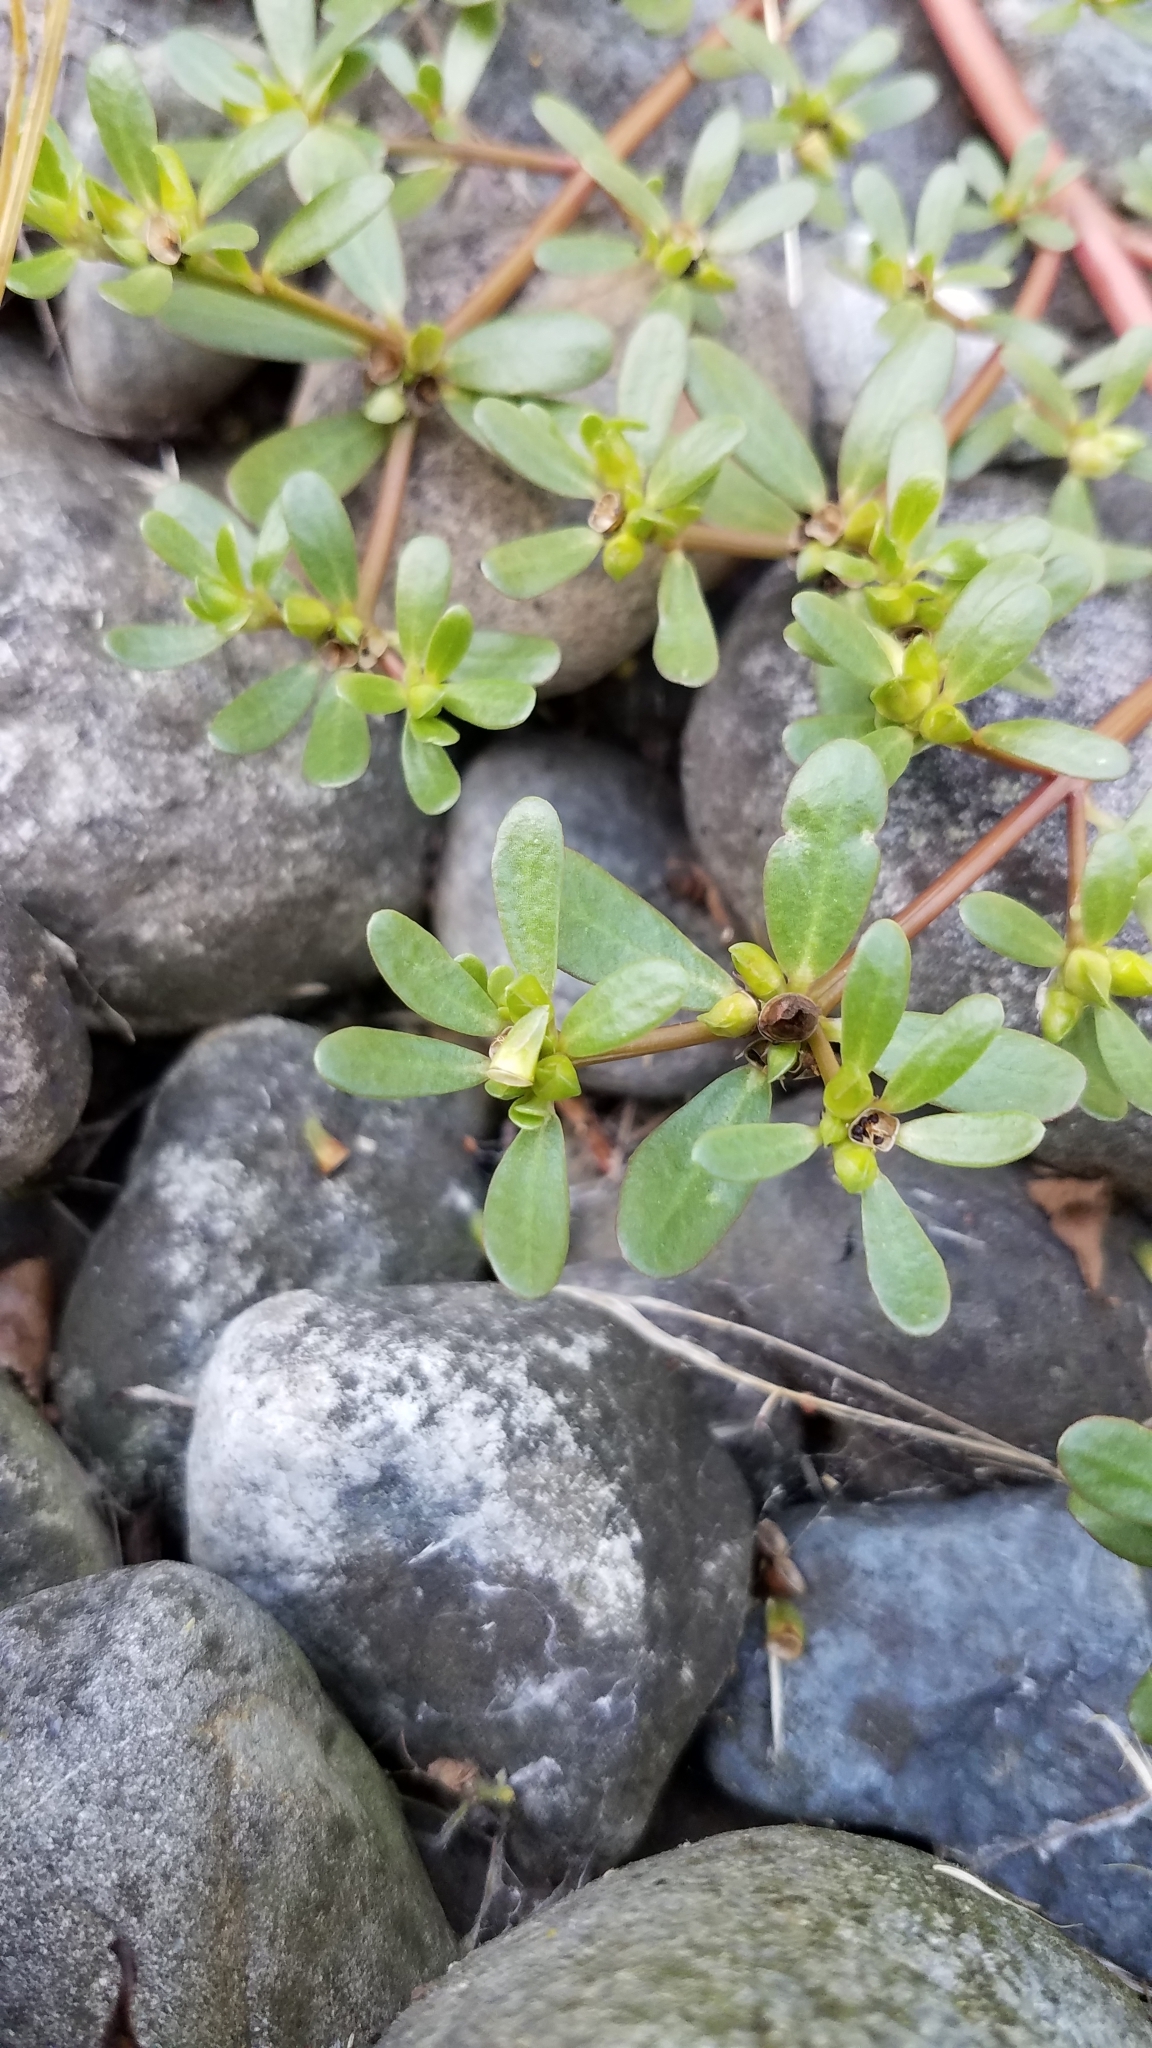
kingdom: Plantae
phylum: Tracheophyta
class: Magnoliopsida
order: Caryophyllales
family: Portulacaceae
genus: Portulaca
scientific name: Portulaca oleracea
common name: Common purslane
